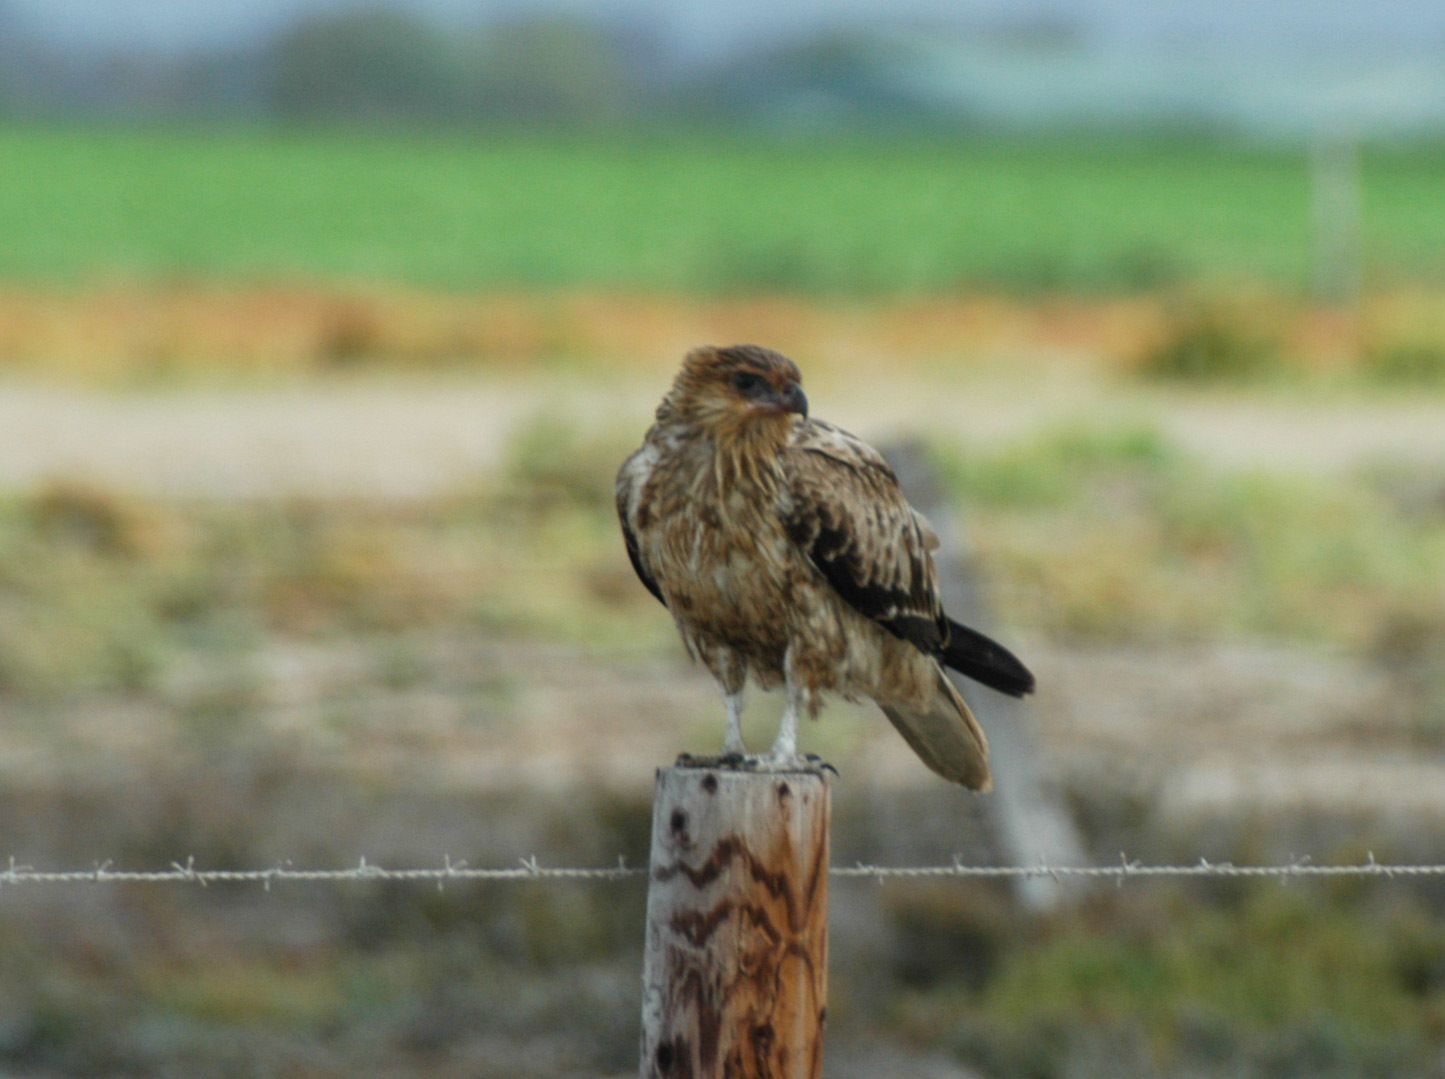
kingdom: Animalia
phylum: Chordata
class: Aves
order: Accipitriformes
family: Accipitridae
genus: Haliastur
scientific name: Haliastur sphenurus
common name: Whistling kite
